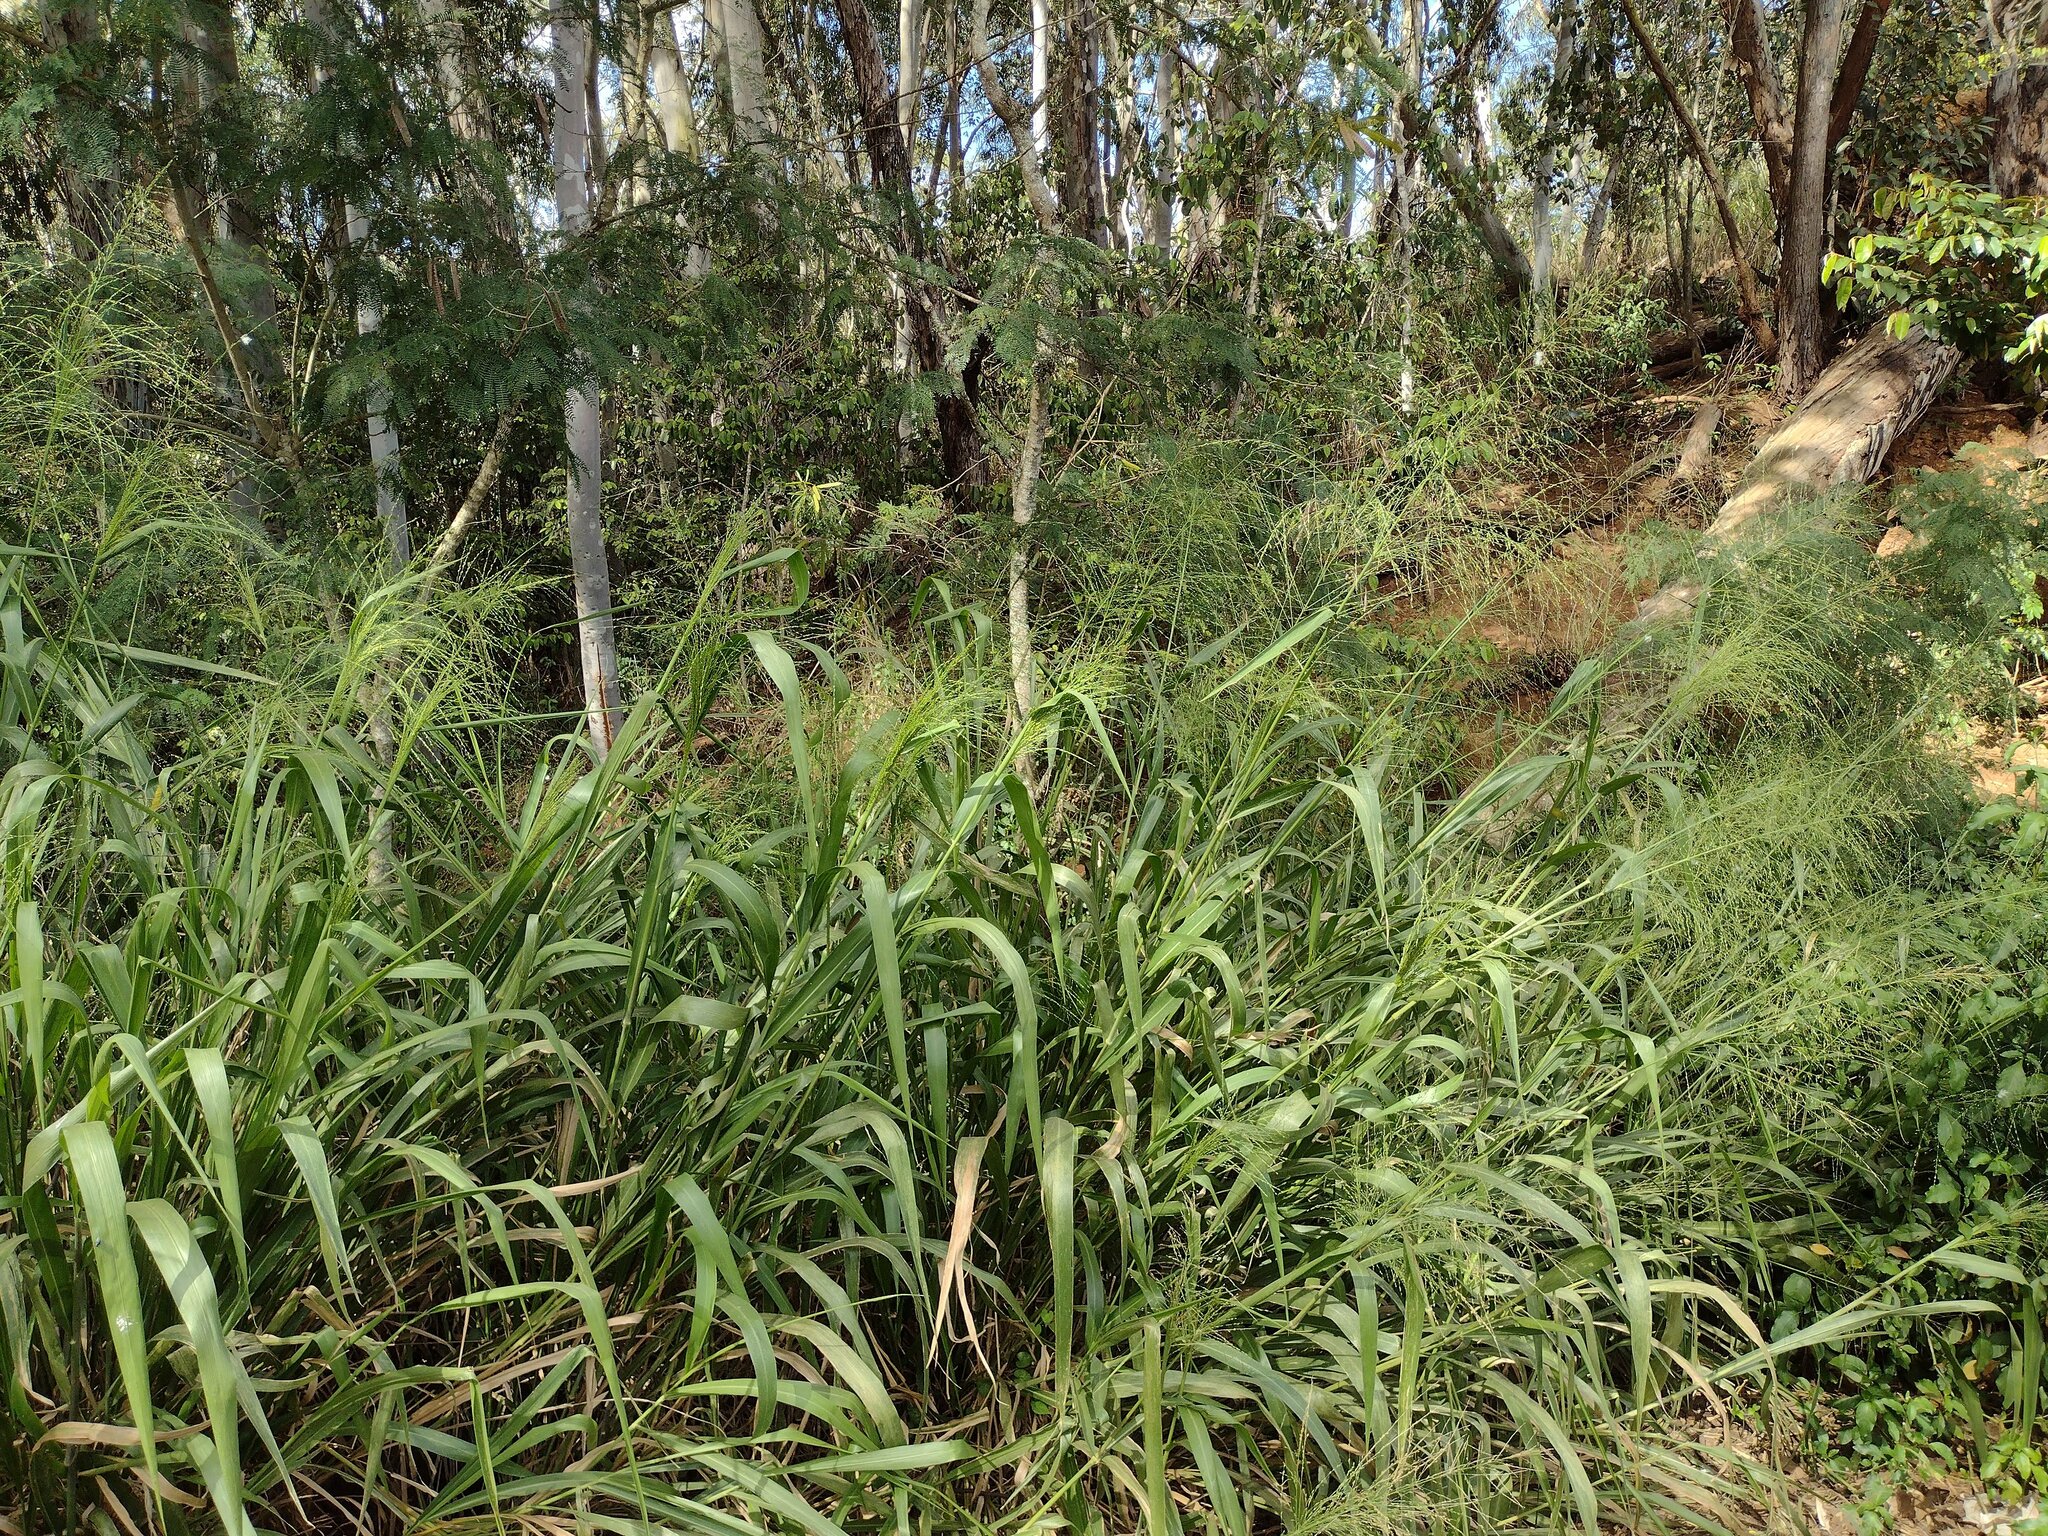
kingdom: Plantae
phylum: Tracheophyta
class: Liliopsida
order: Poales
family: Poaceae
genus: Megathyrsus
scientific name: Megathyrsus maximus
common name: Guineagrass
